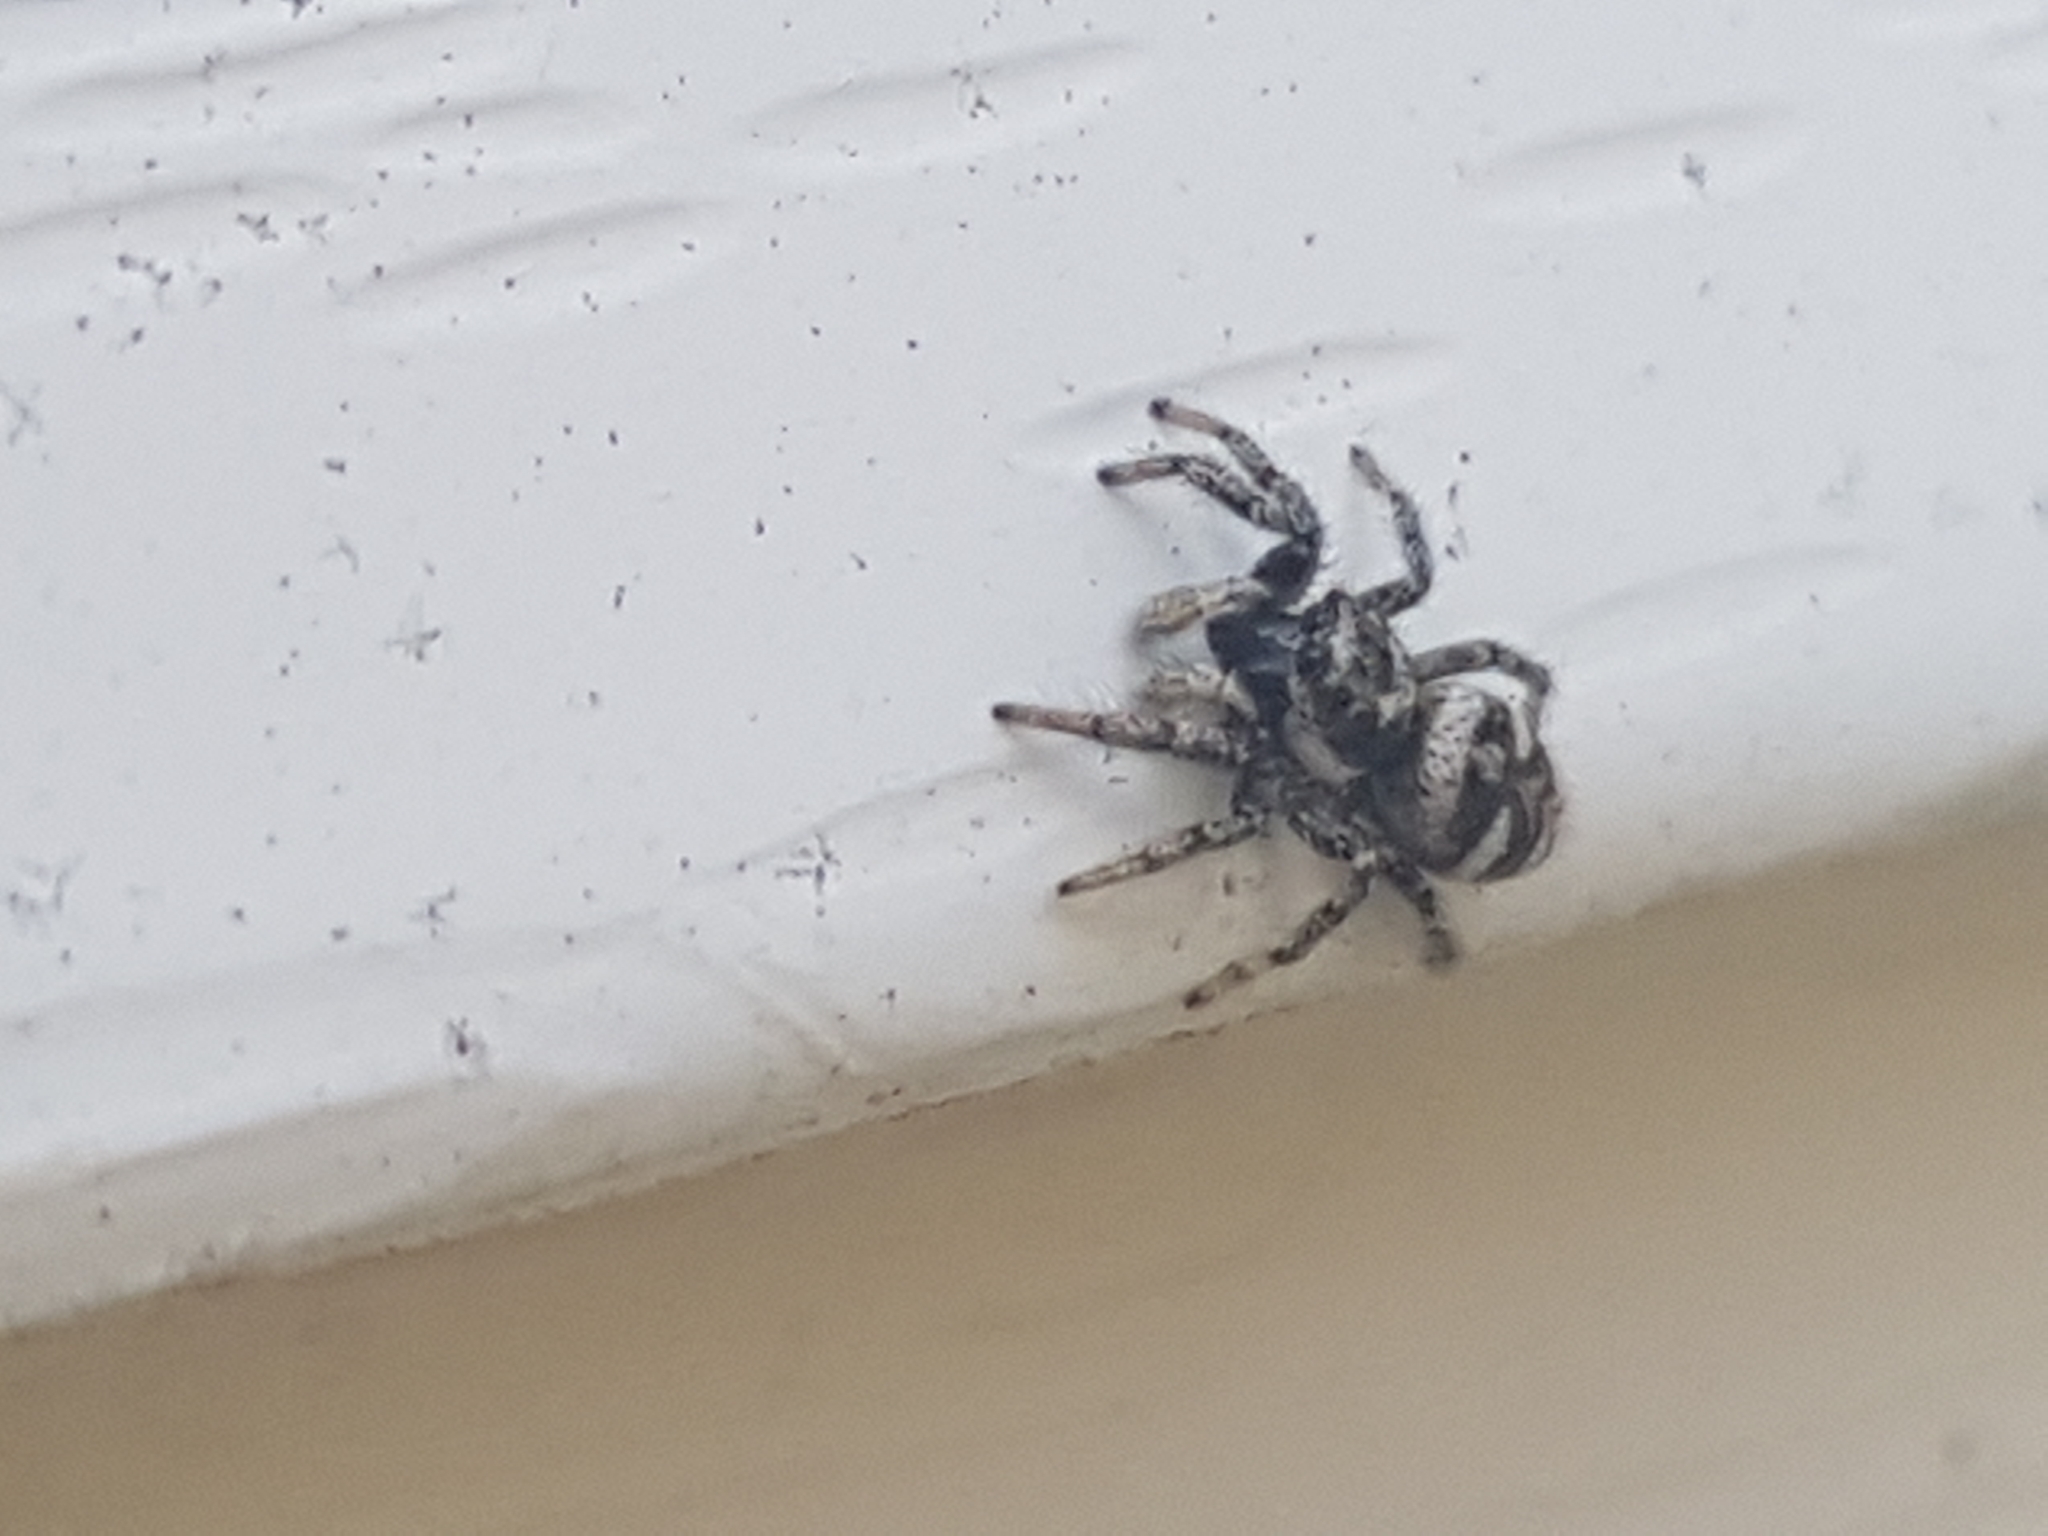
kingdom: Animalia
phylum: Arthropoda
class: Arachnida
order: Araneae
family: Salticidae
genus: Salticus
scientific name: Salticus scenicus
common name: Zebra jumper
